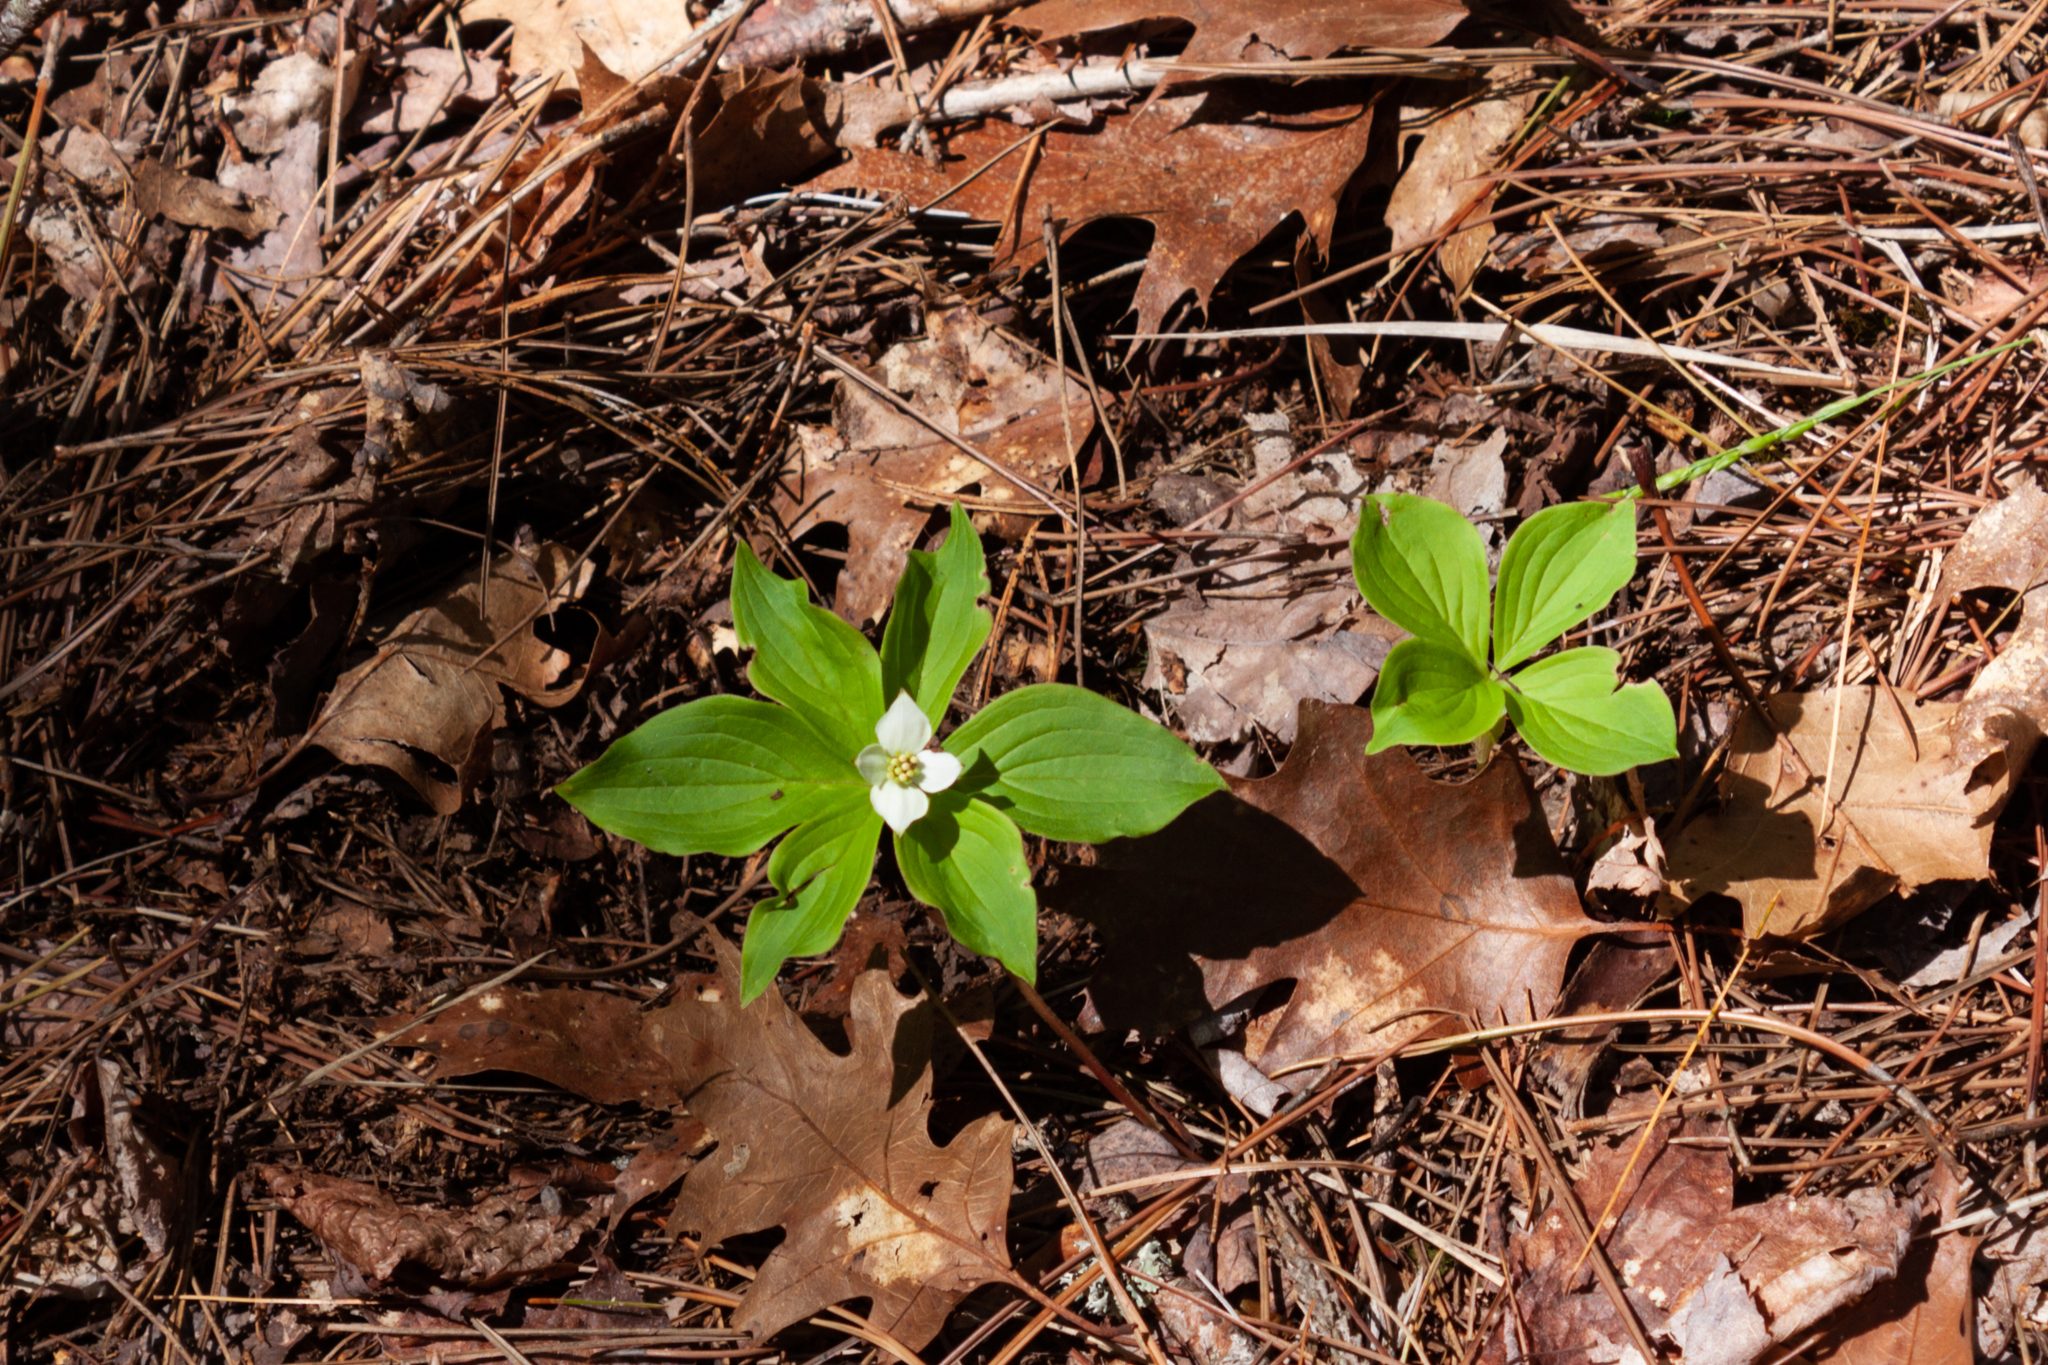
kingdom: Plantae
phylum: Tracheophyta
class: Magnoliopsida
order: Cornales
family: Cornaceae
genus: Cornus
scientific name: Cornus canadensis
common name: Creeping dogwood
